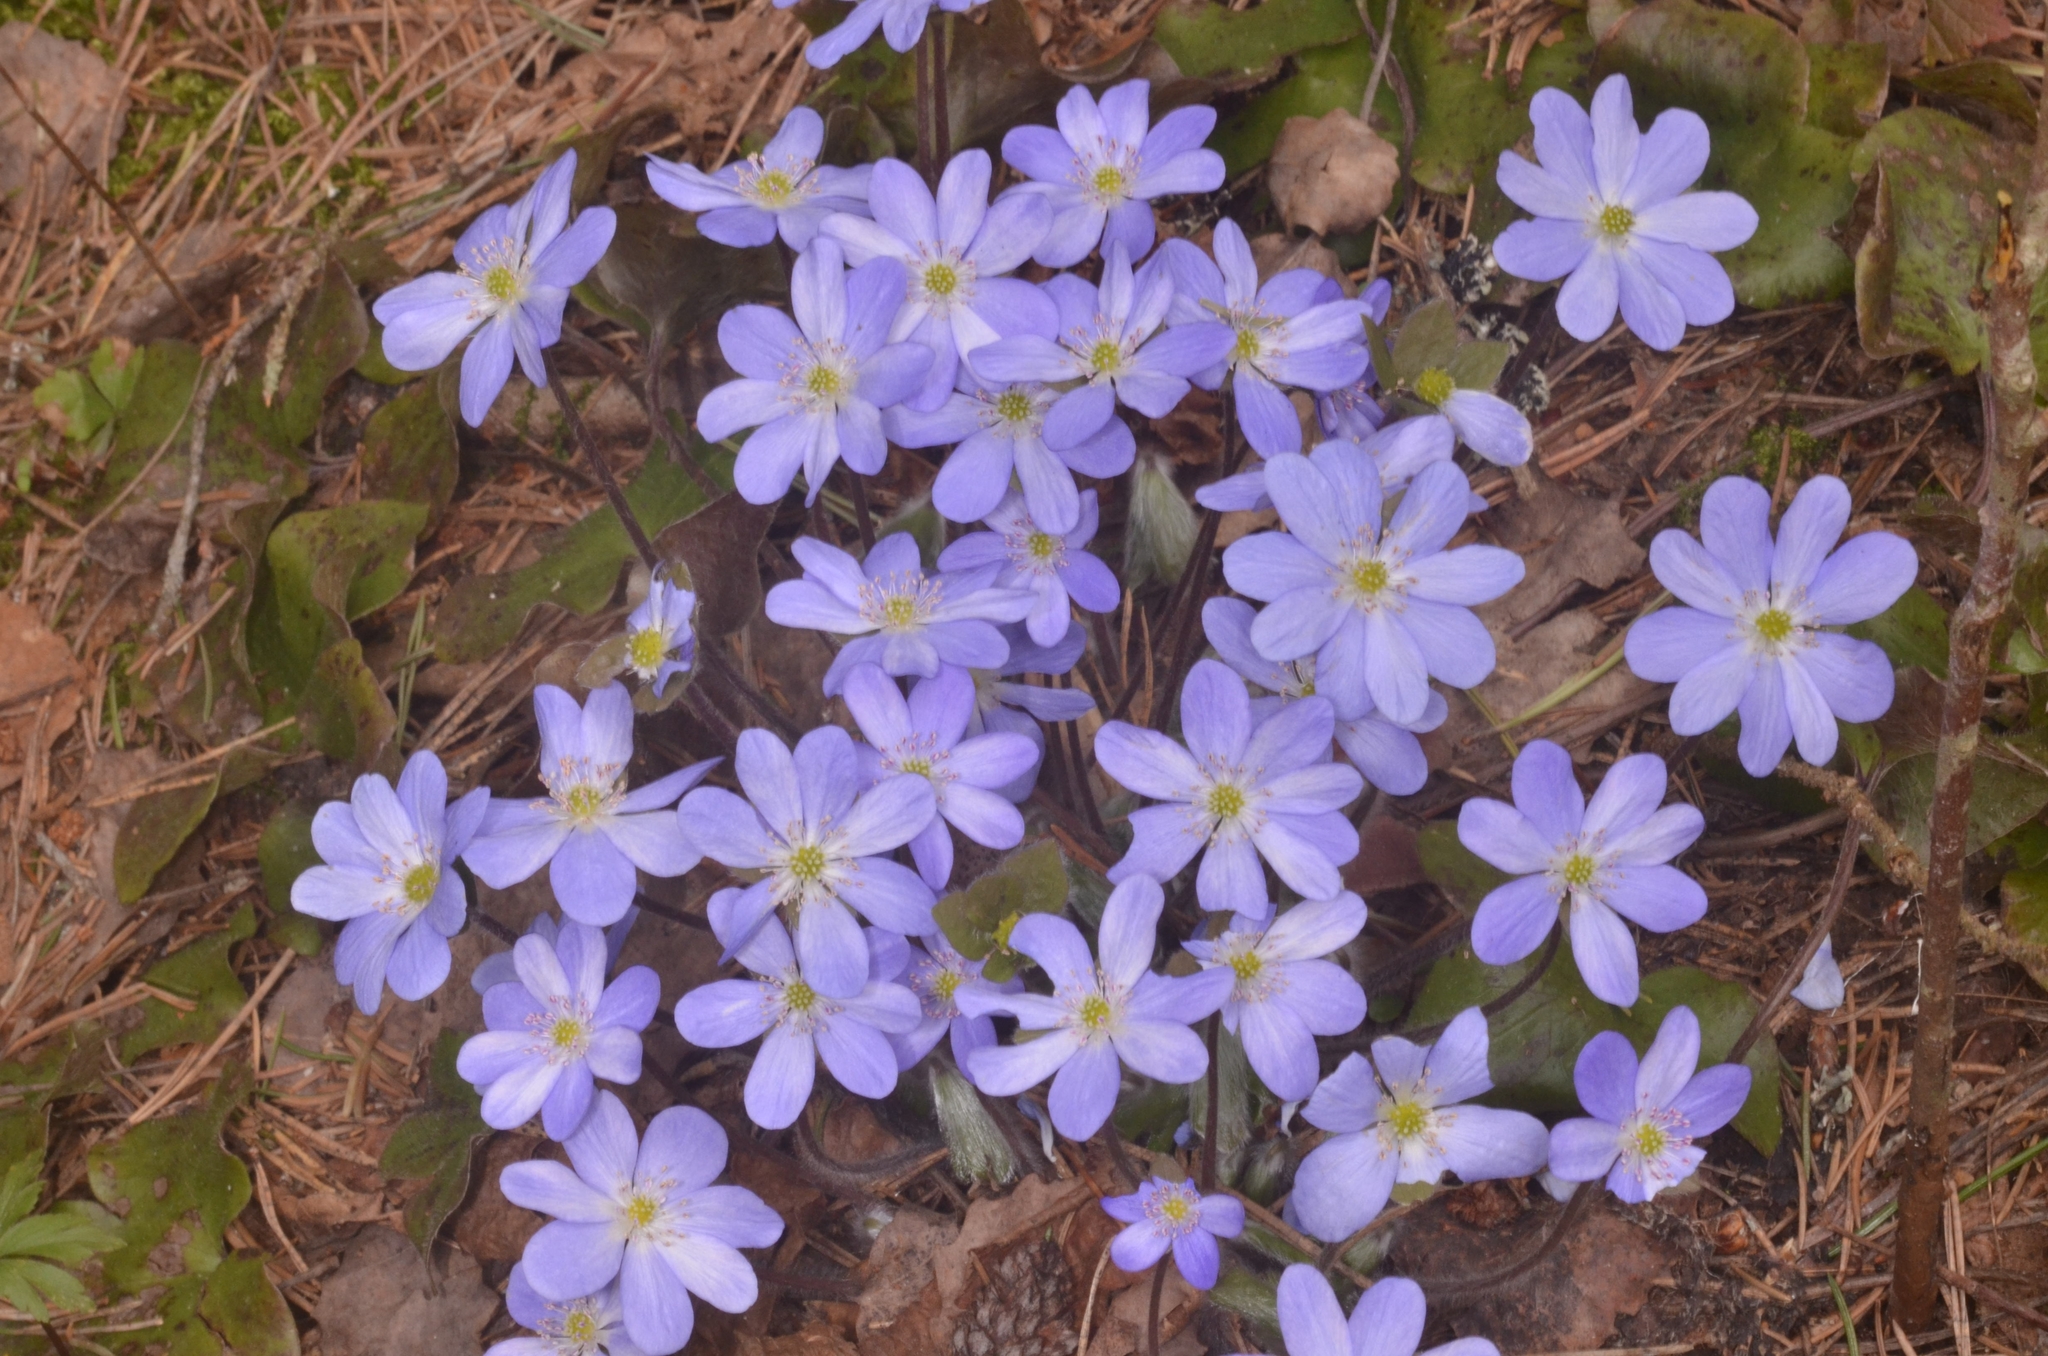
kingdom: Plantae
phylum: Tracheophyta
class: Magnoliopsida
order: Ranunculales
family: Ranunculaceae
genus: Hepatica
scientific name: Hepatica nobilis
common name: Liverleaf
